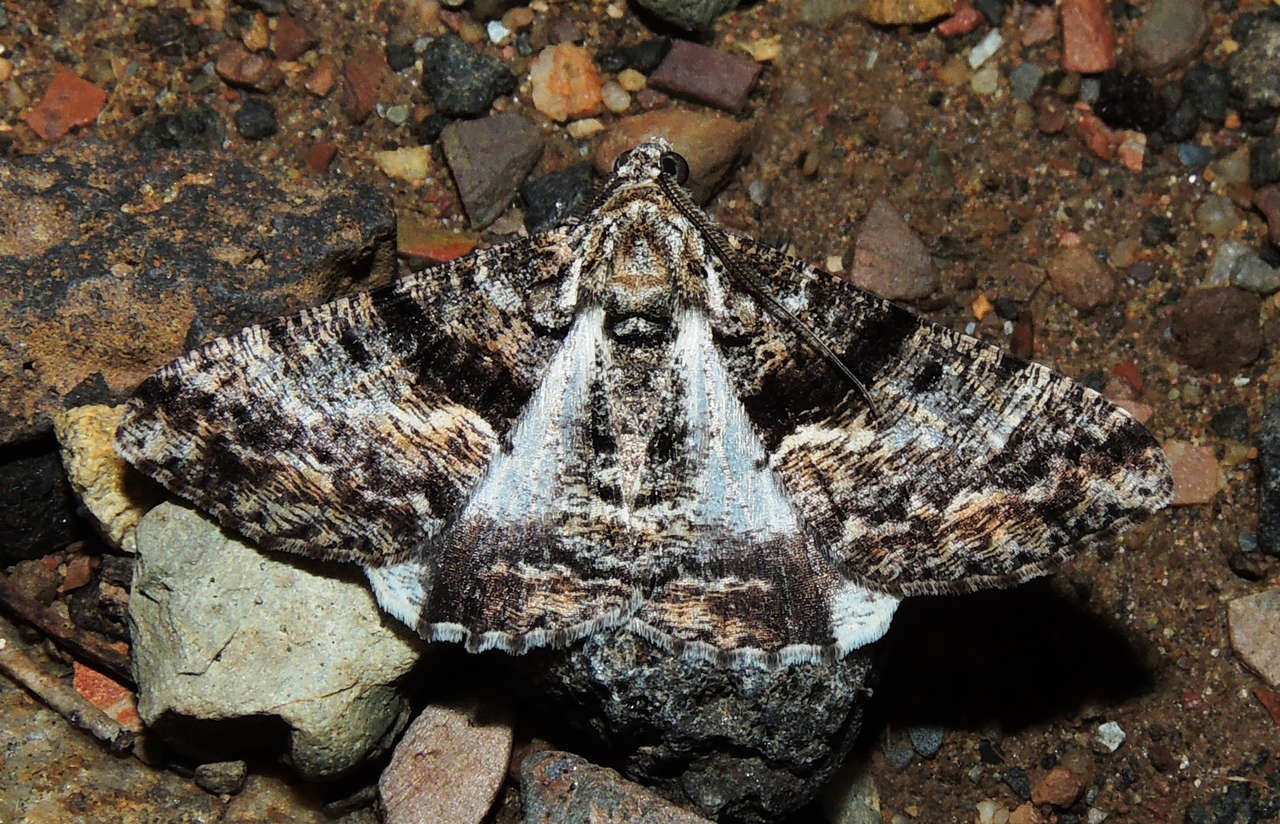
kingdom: Animalia
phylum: Arthropoda
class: Insecta
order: Lepidoptera
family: Geometridae
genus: Gastrinodes
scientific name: Gastrinodes argoplaca
